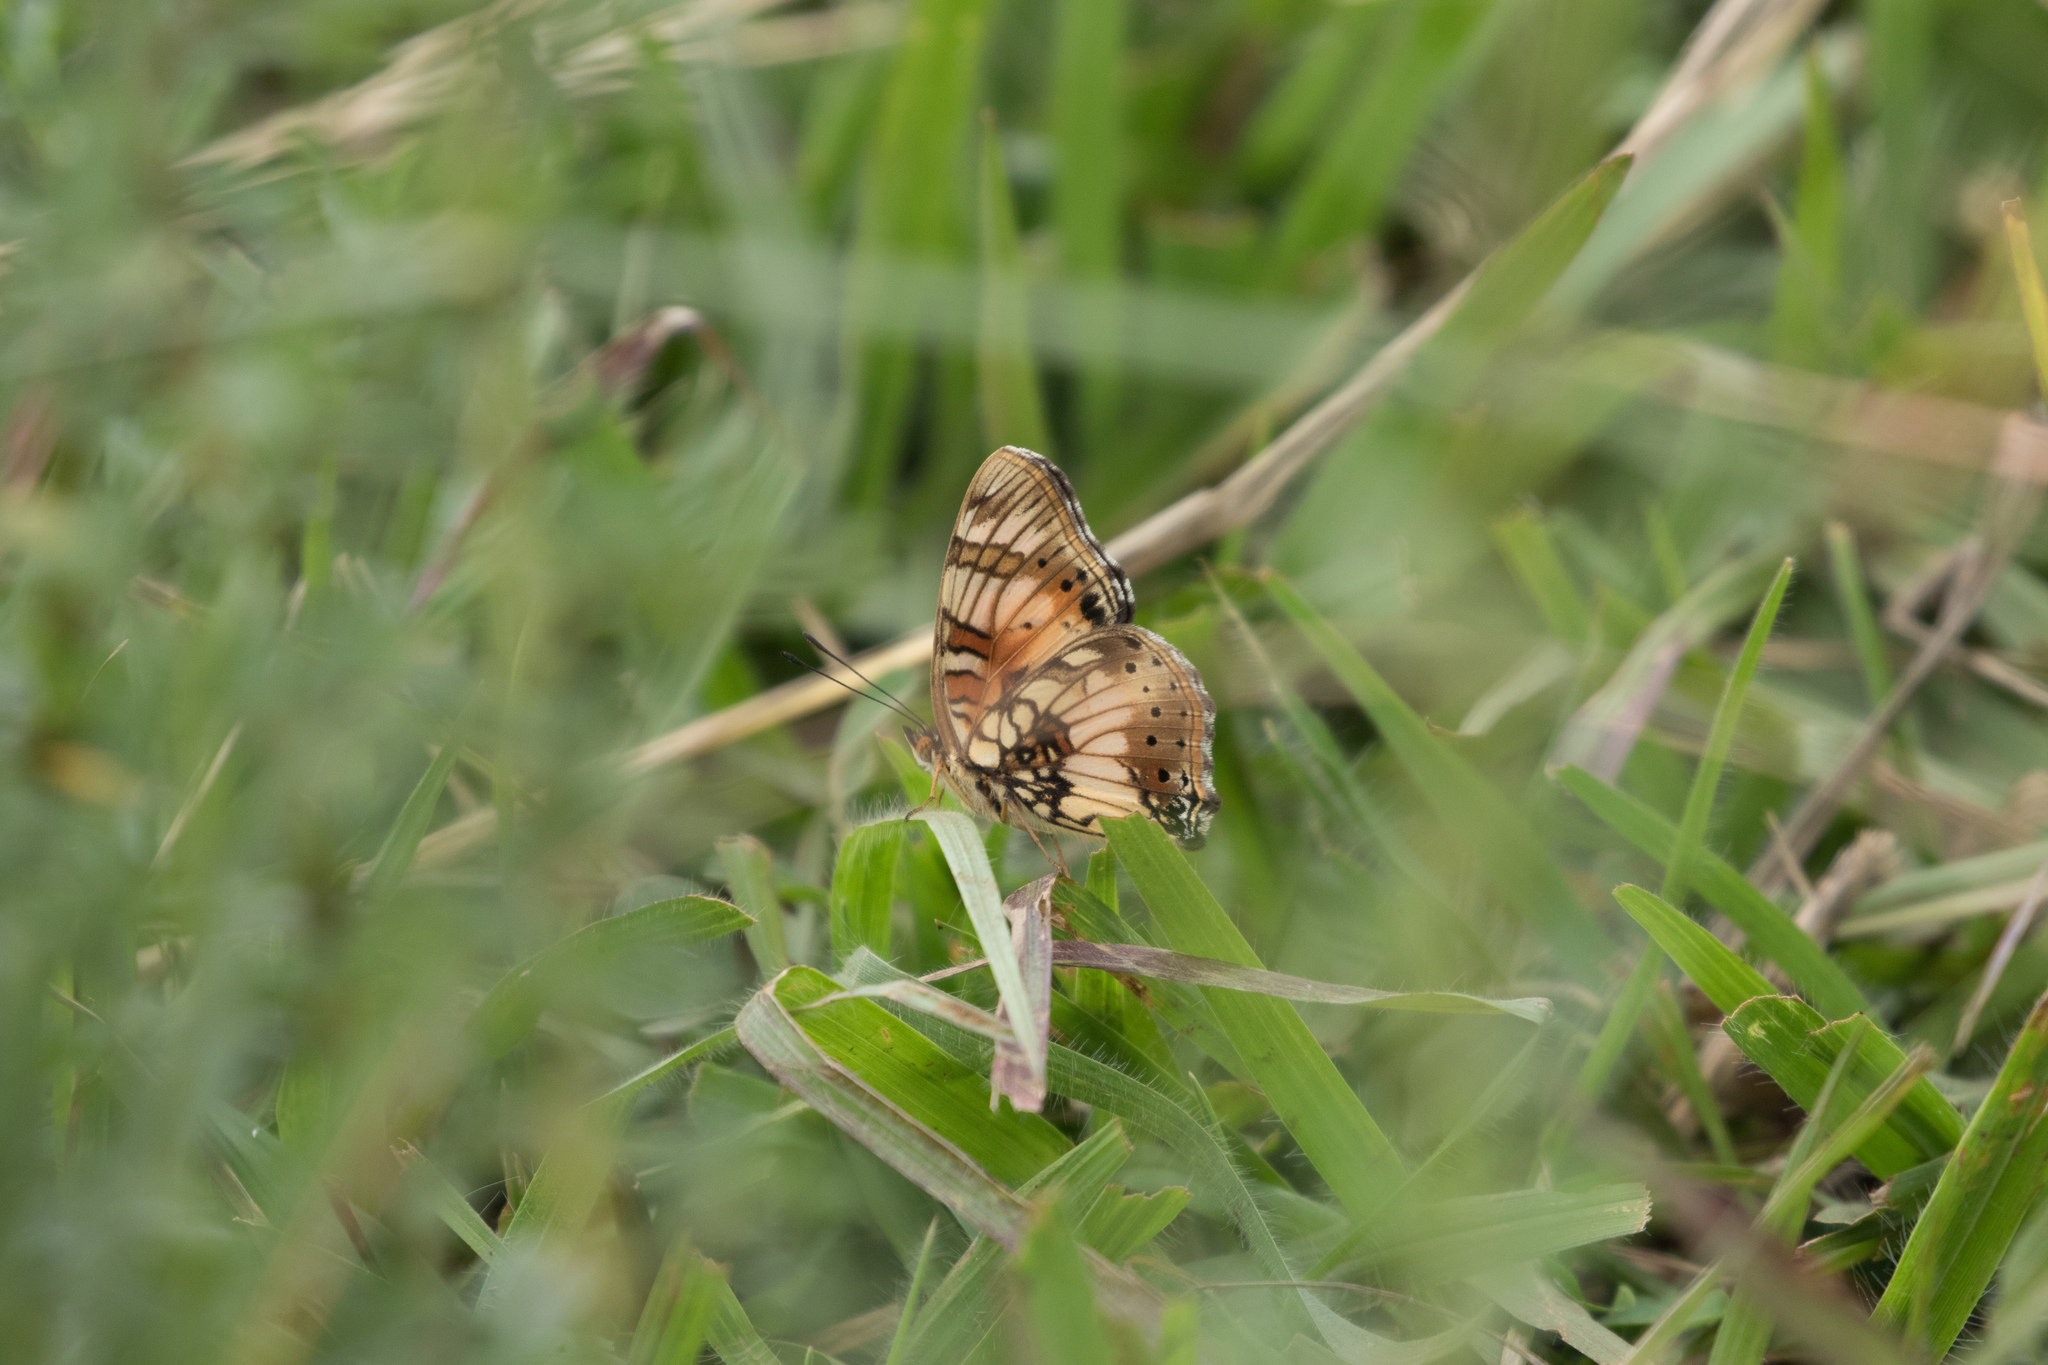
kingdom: Animalia
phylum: Arthropoda
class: Insecta
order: Lepidoptera
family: Nymphalidae
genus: Junonia
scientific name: Junonia sophia
